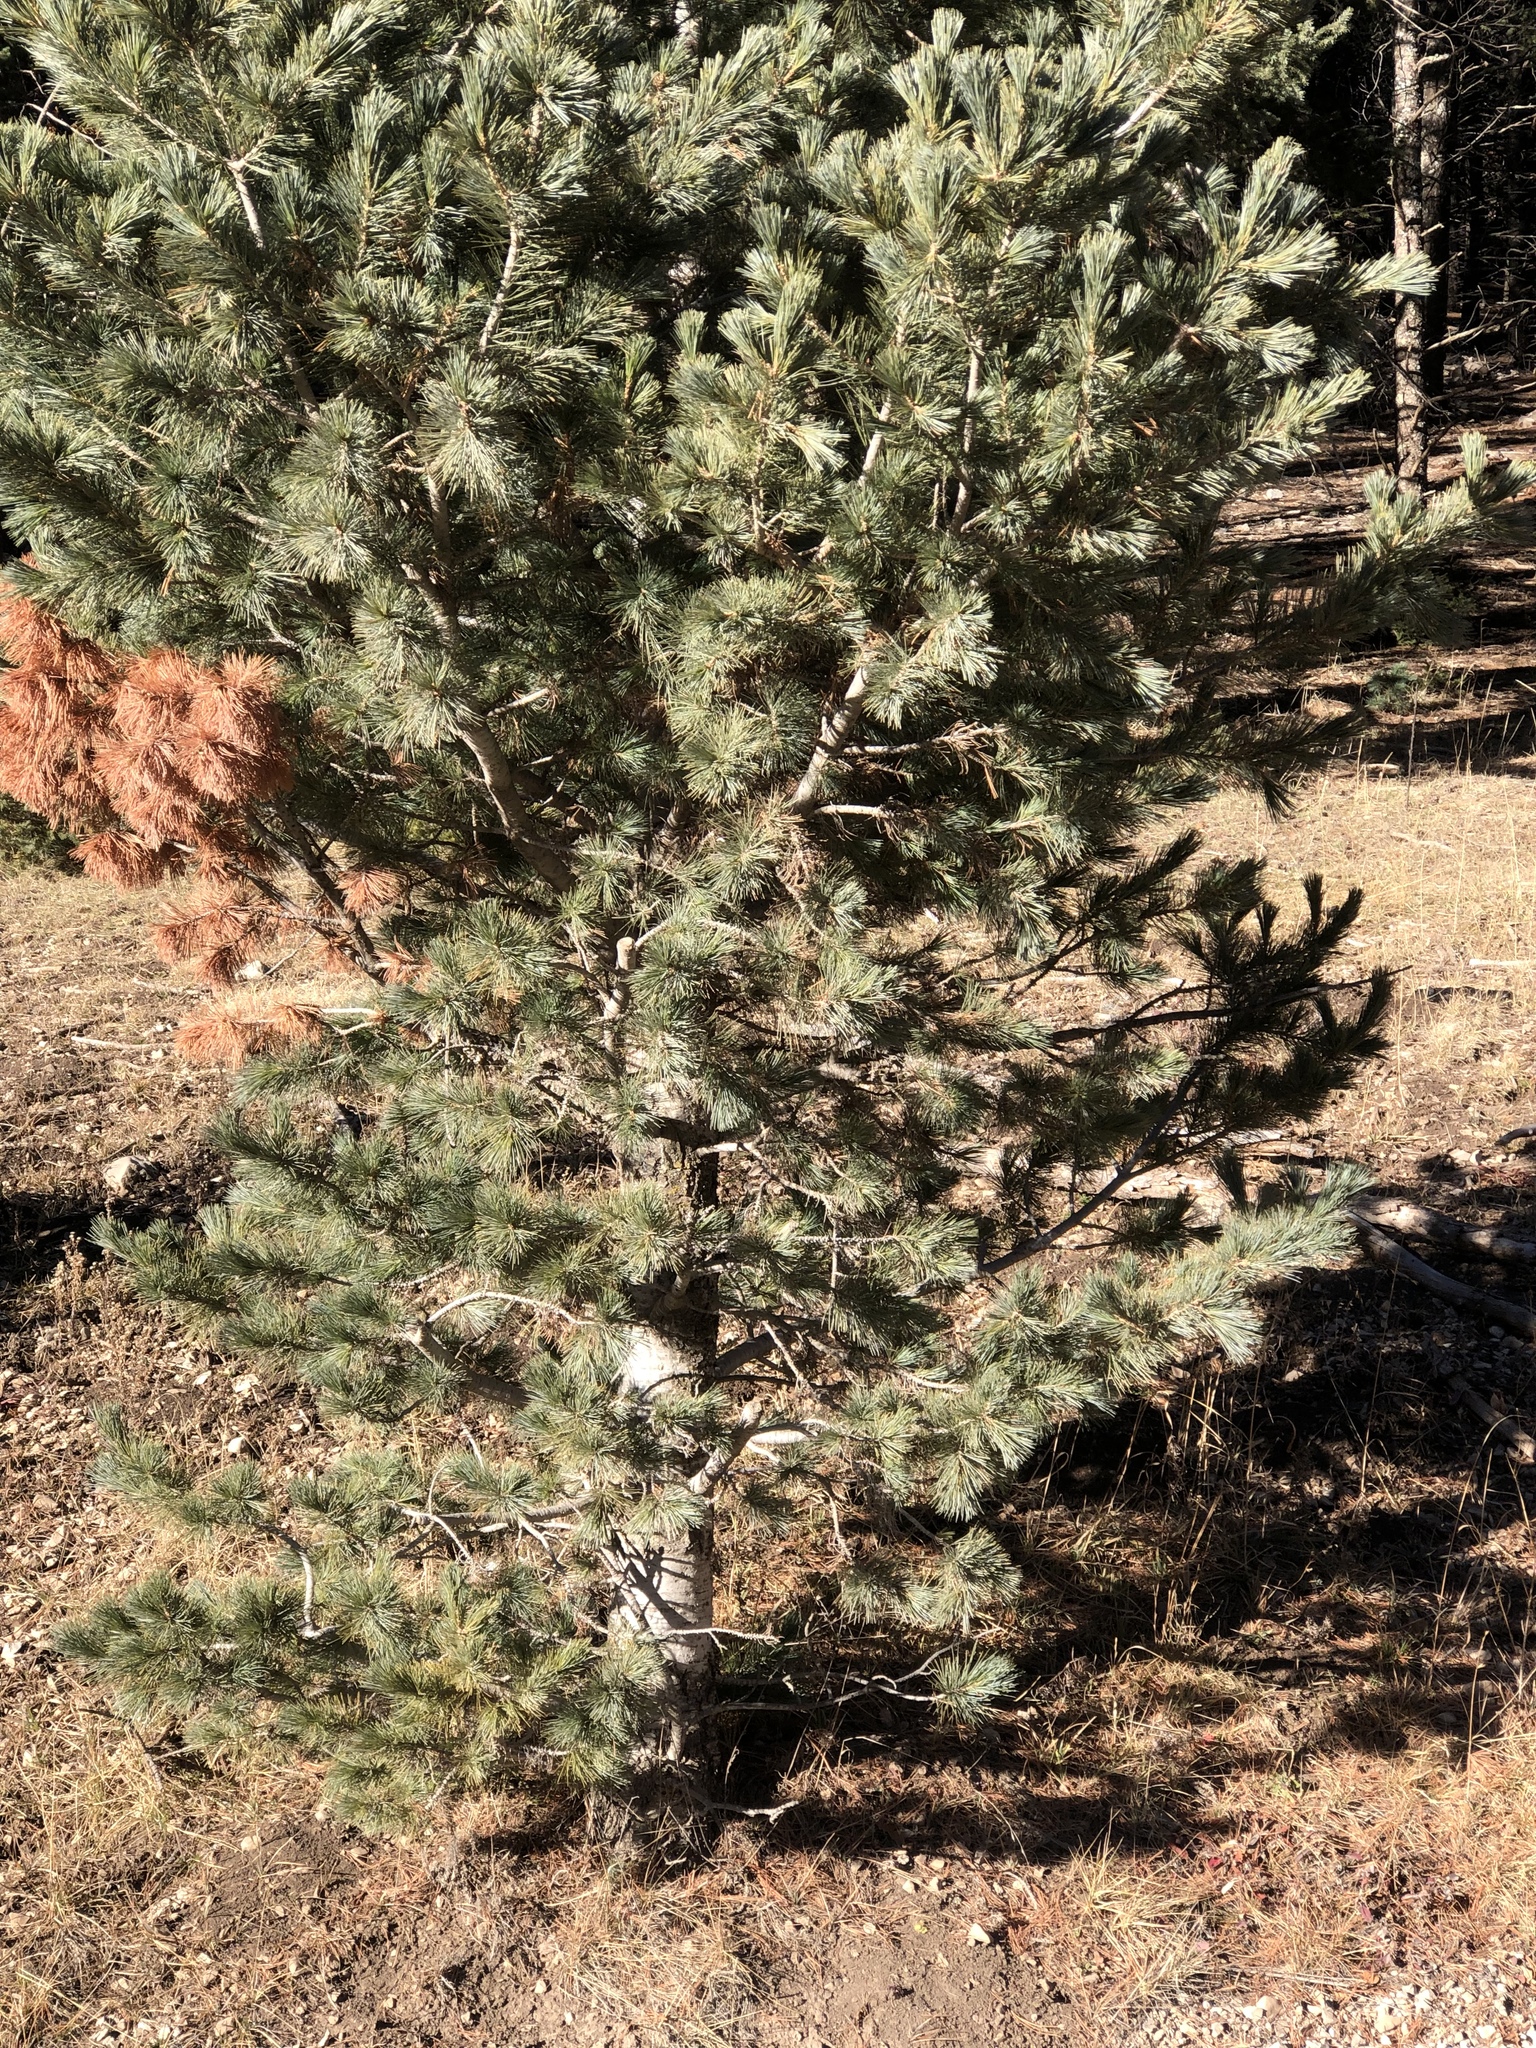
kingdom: Plantae
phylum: Tracheophyta
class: Pinopsida
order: Pinales
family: Pinaceae
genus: Pinus
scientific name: Pinus strobiformis
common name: Southwestern white pine
